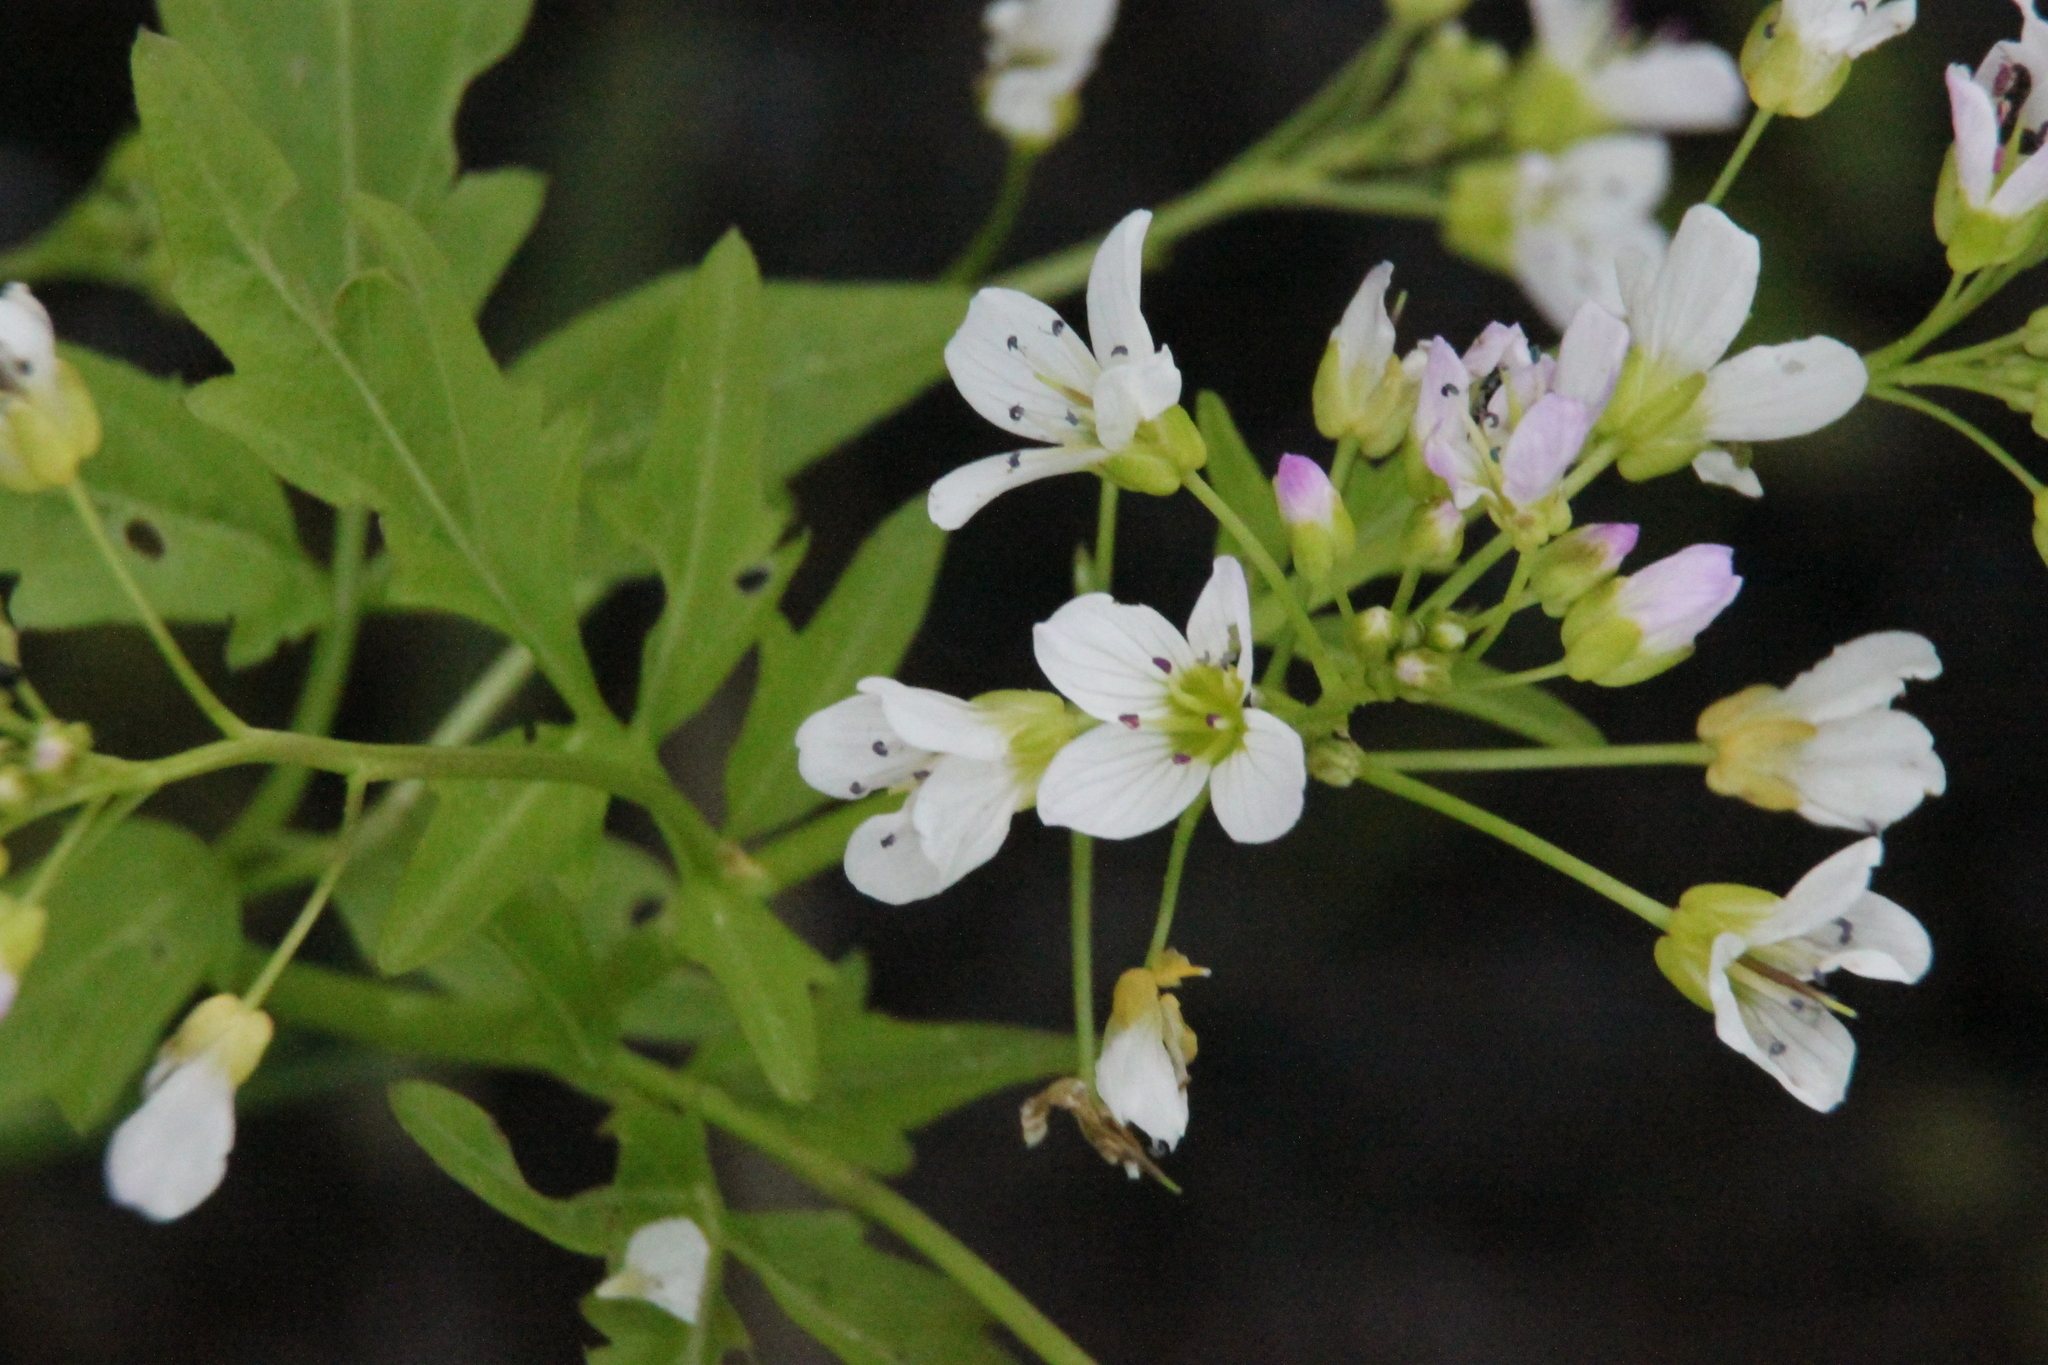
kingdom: Plantae
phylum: Tracheophyta
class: Magnoliopsida
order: Brassicales
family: Brassicaceae
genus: Cardamine
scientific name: Cardamine amara
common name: Large bitter-cress
